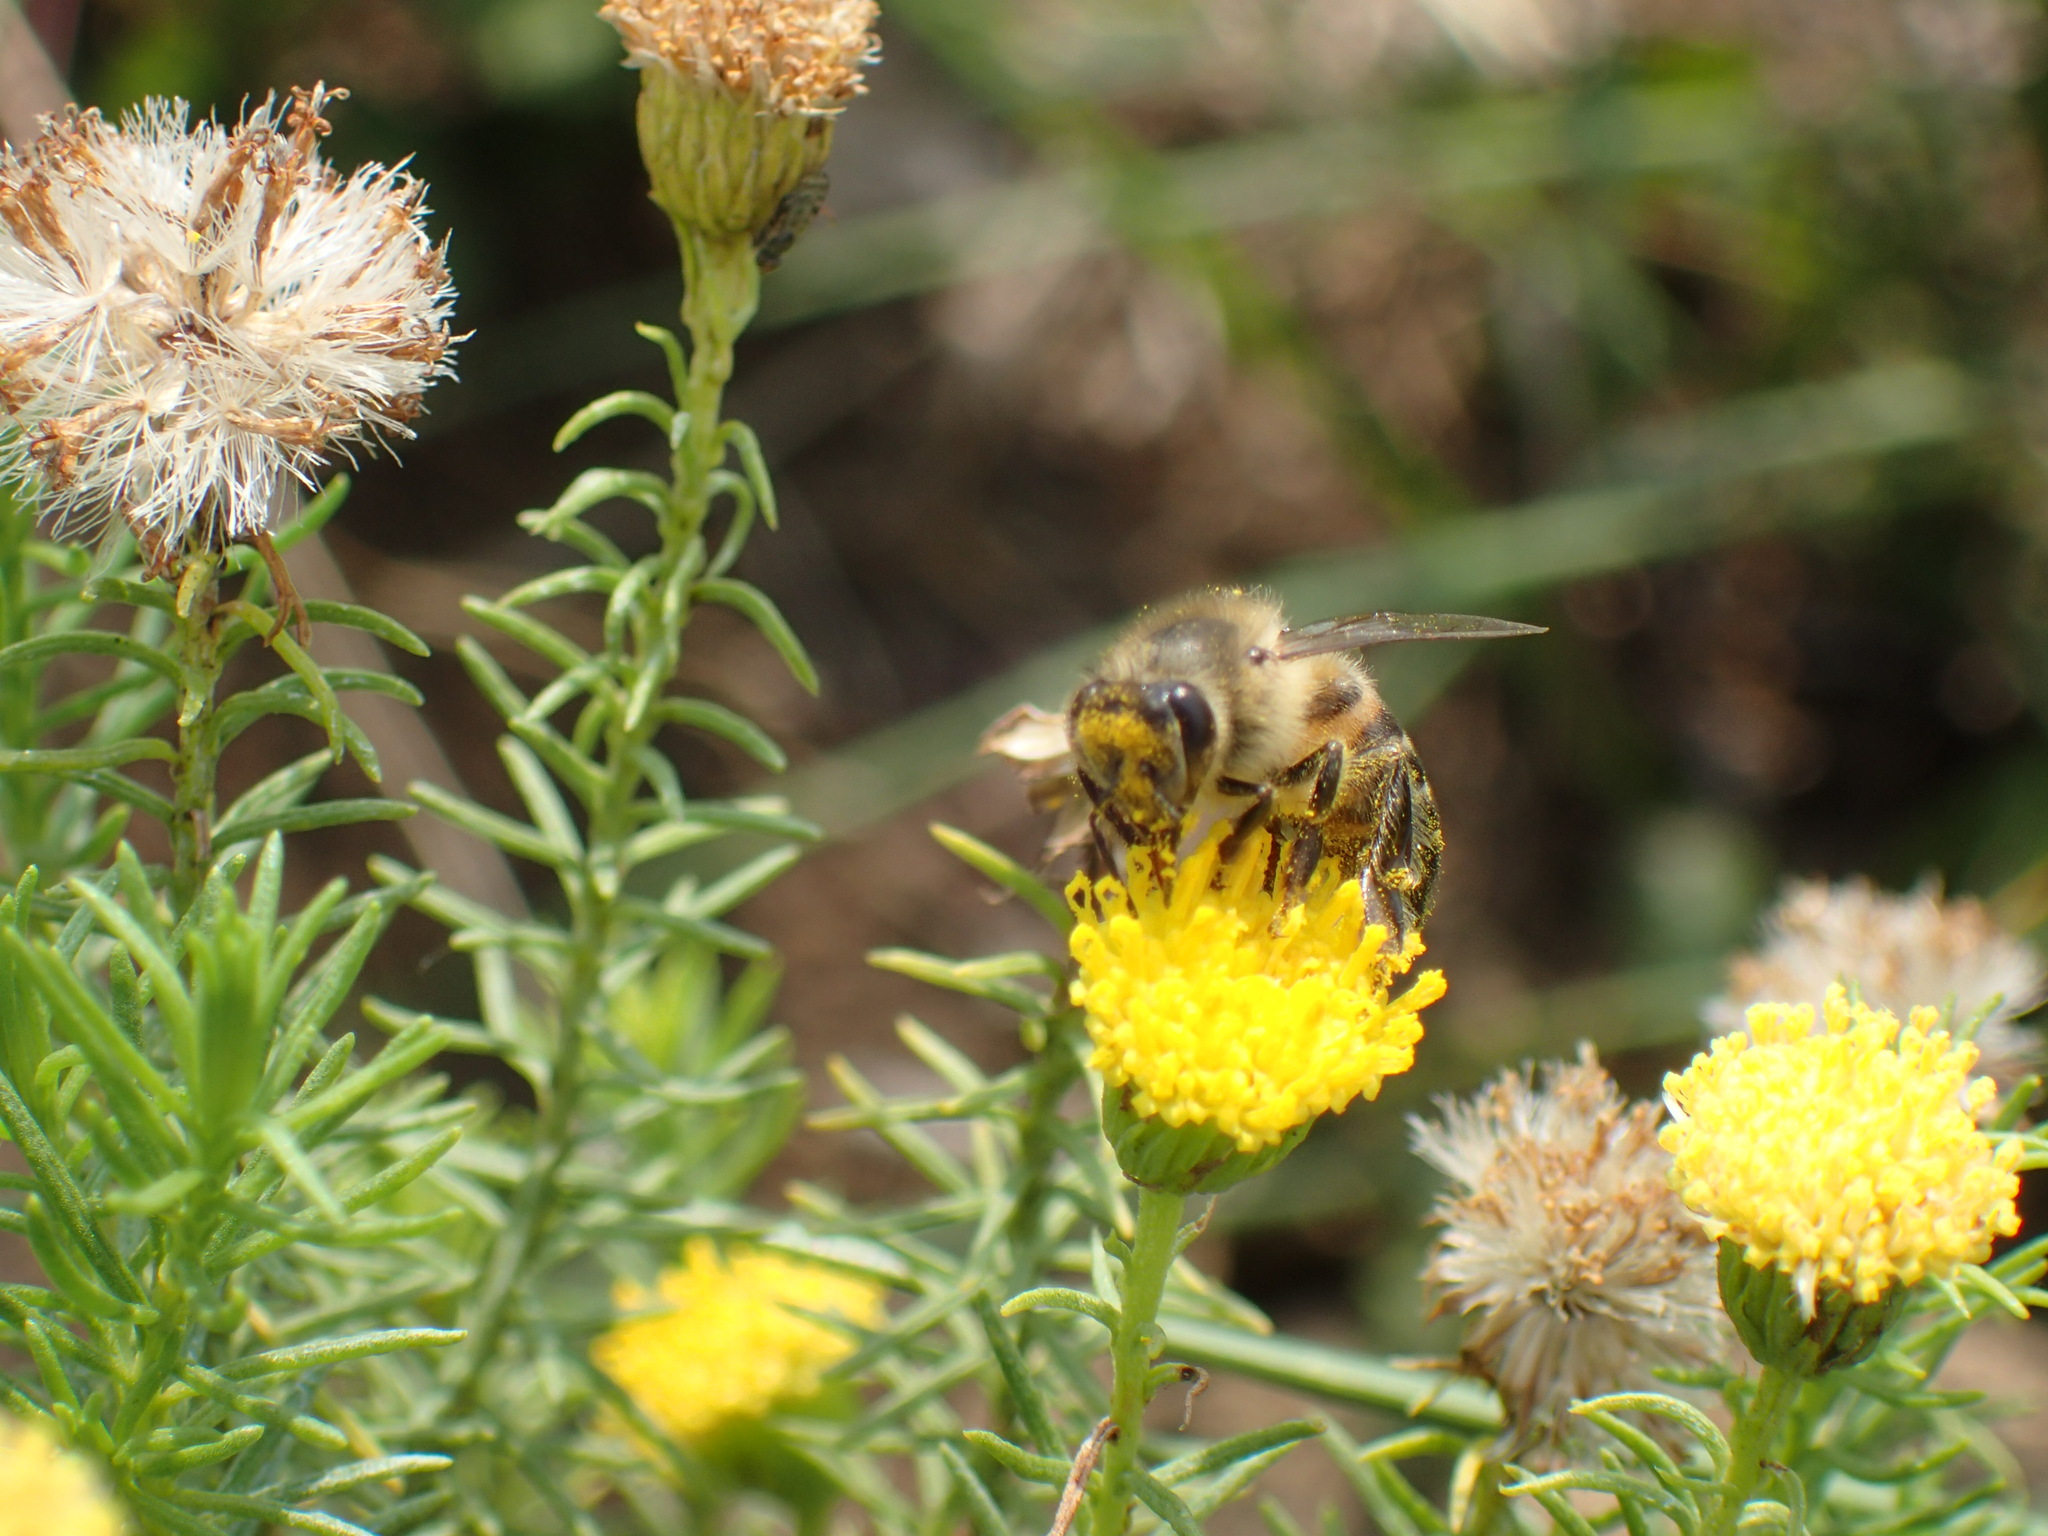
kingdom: Animalia
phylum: Arthropoda
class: Insecta
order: Hymenoptera
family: Apidae
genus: Apis
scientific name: Apis mellifera
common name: Honey bee
